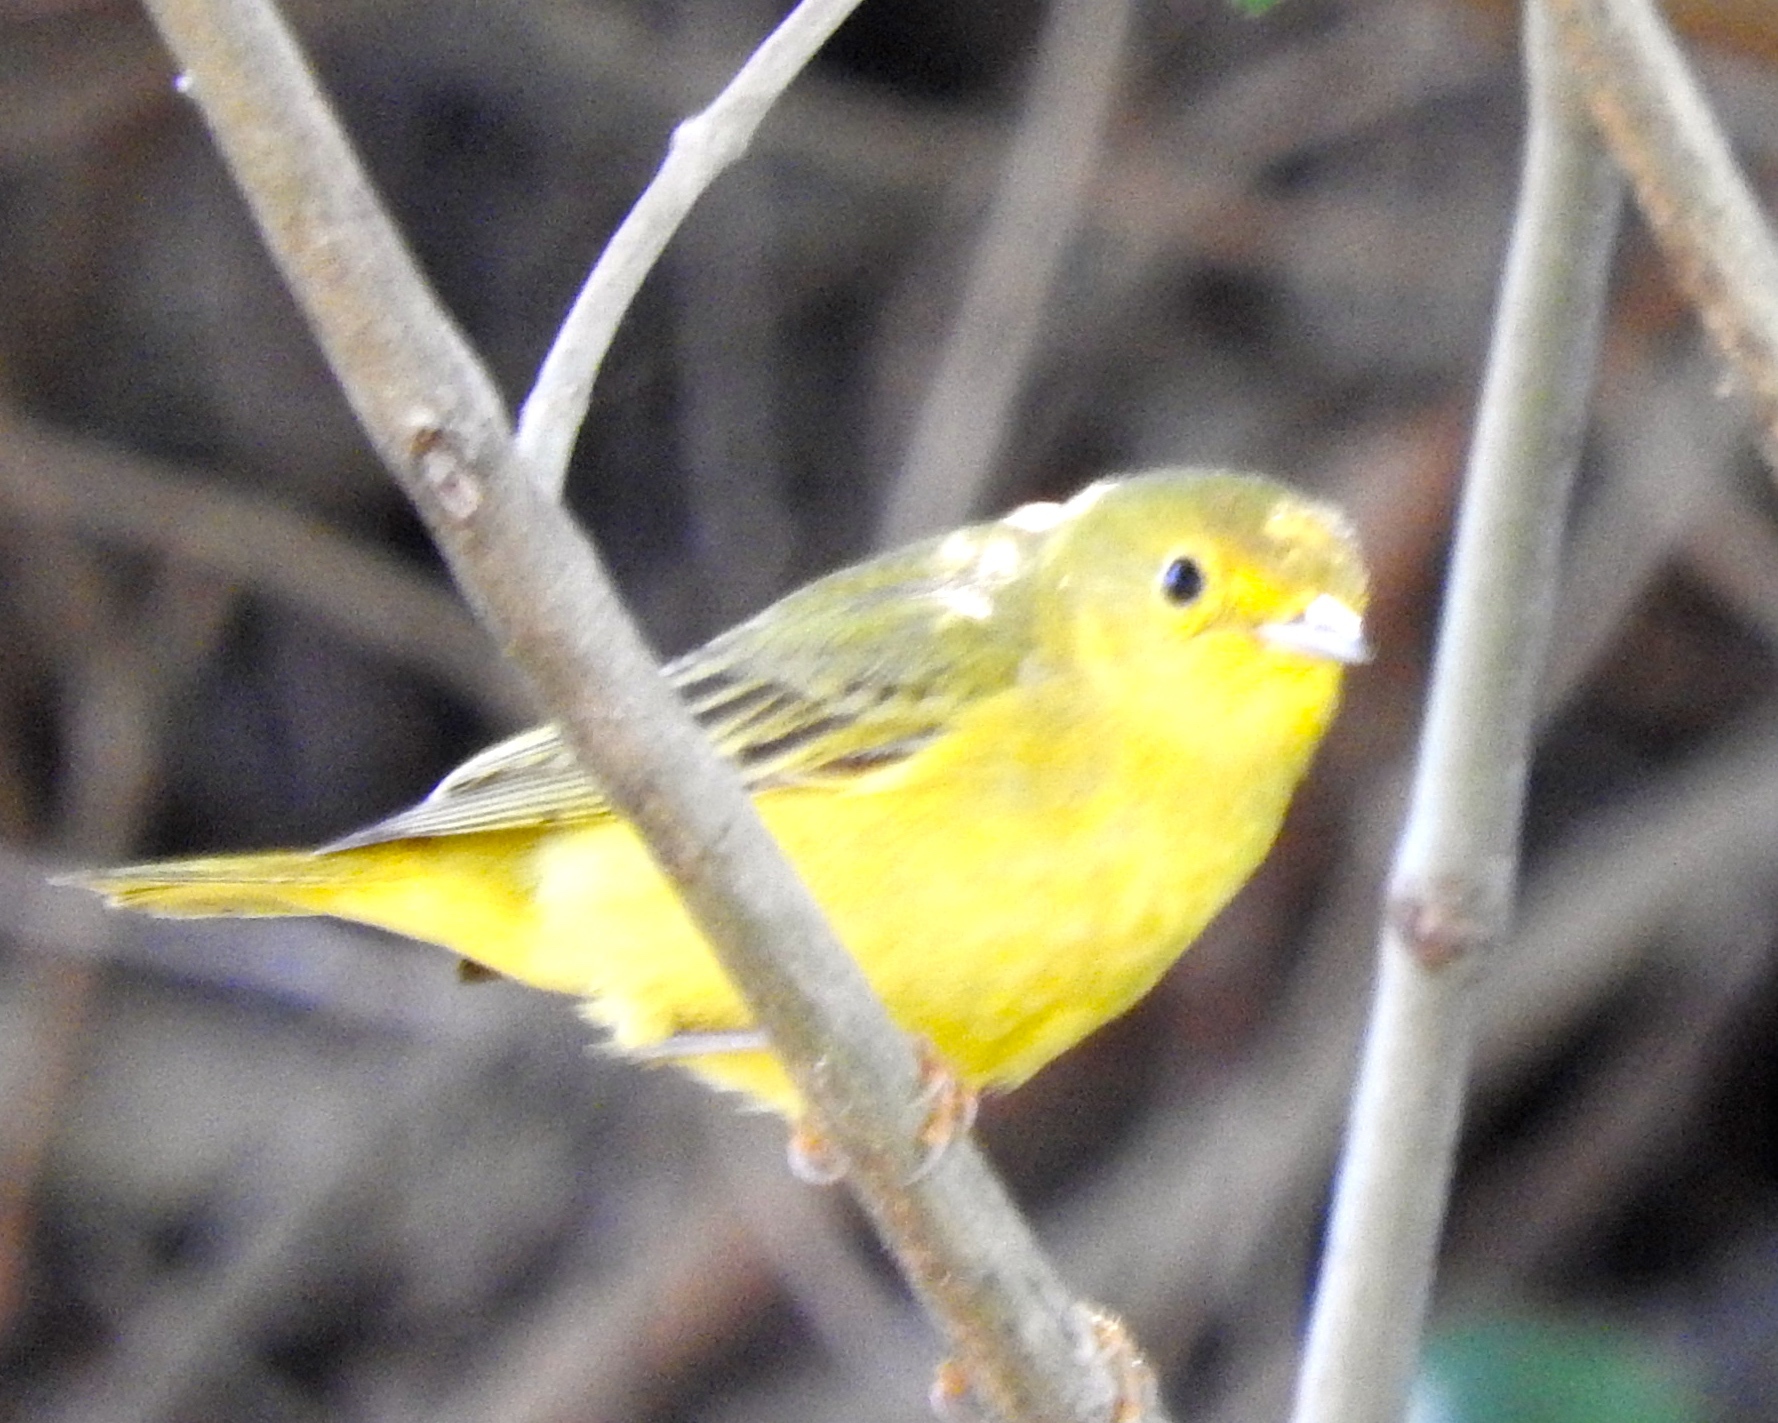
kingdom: Animalia
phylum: Chordata
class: Aves
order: Passeriformes
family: Parulidae
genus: Setophaga
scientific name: Setophaga petechia
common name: Yellow warbler
